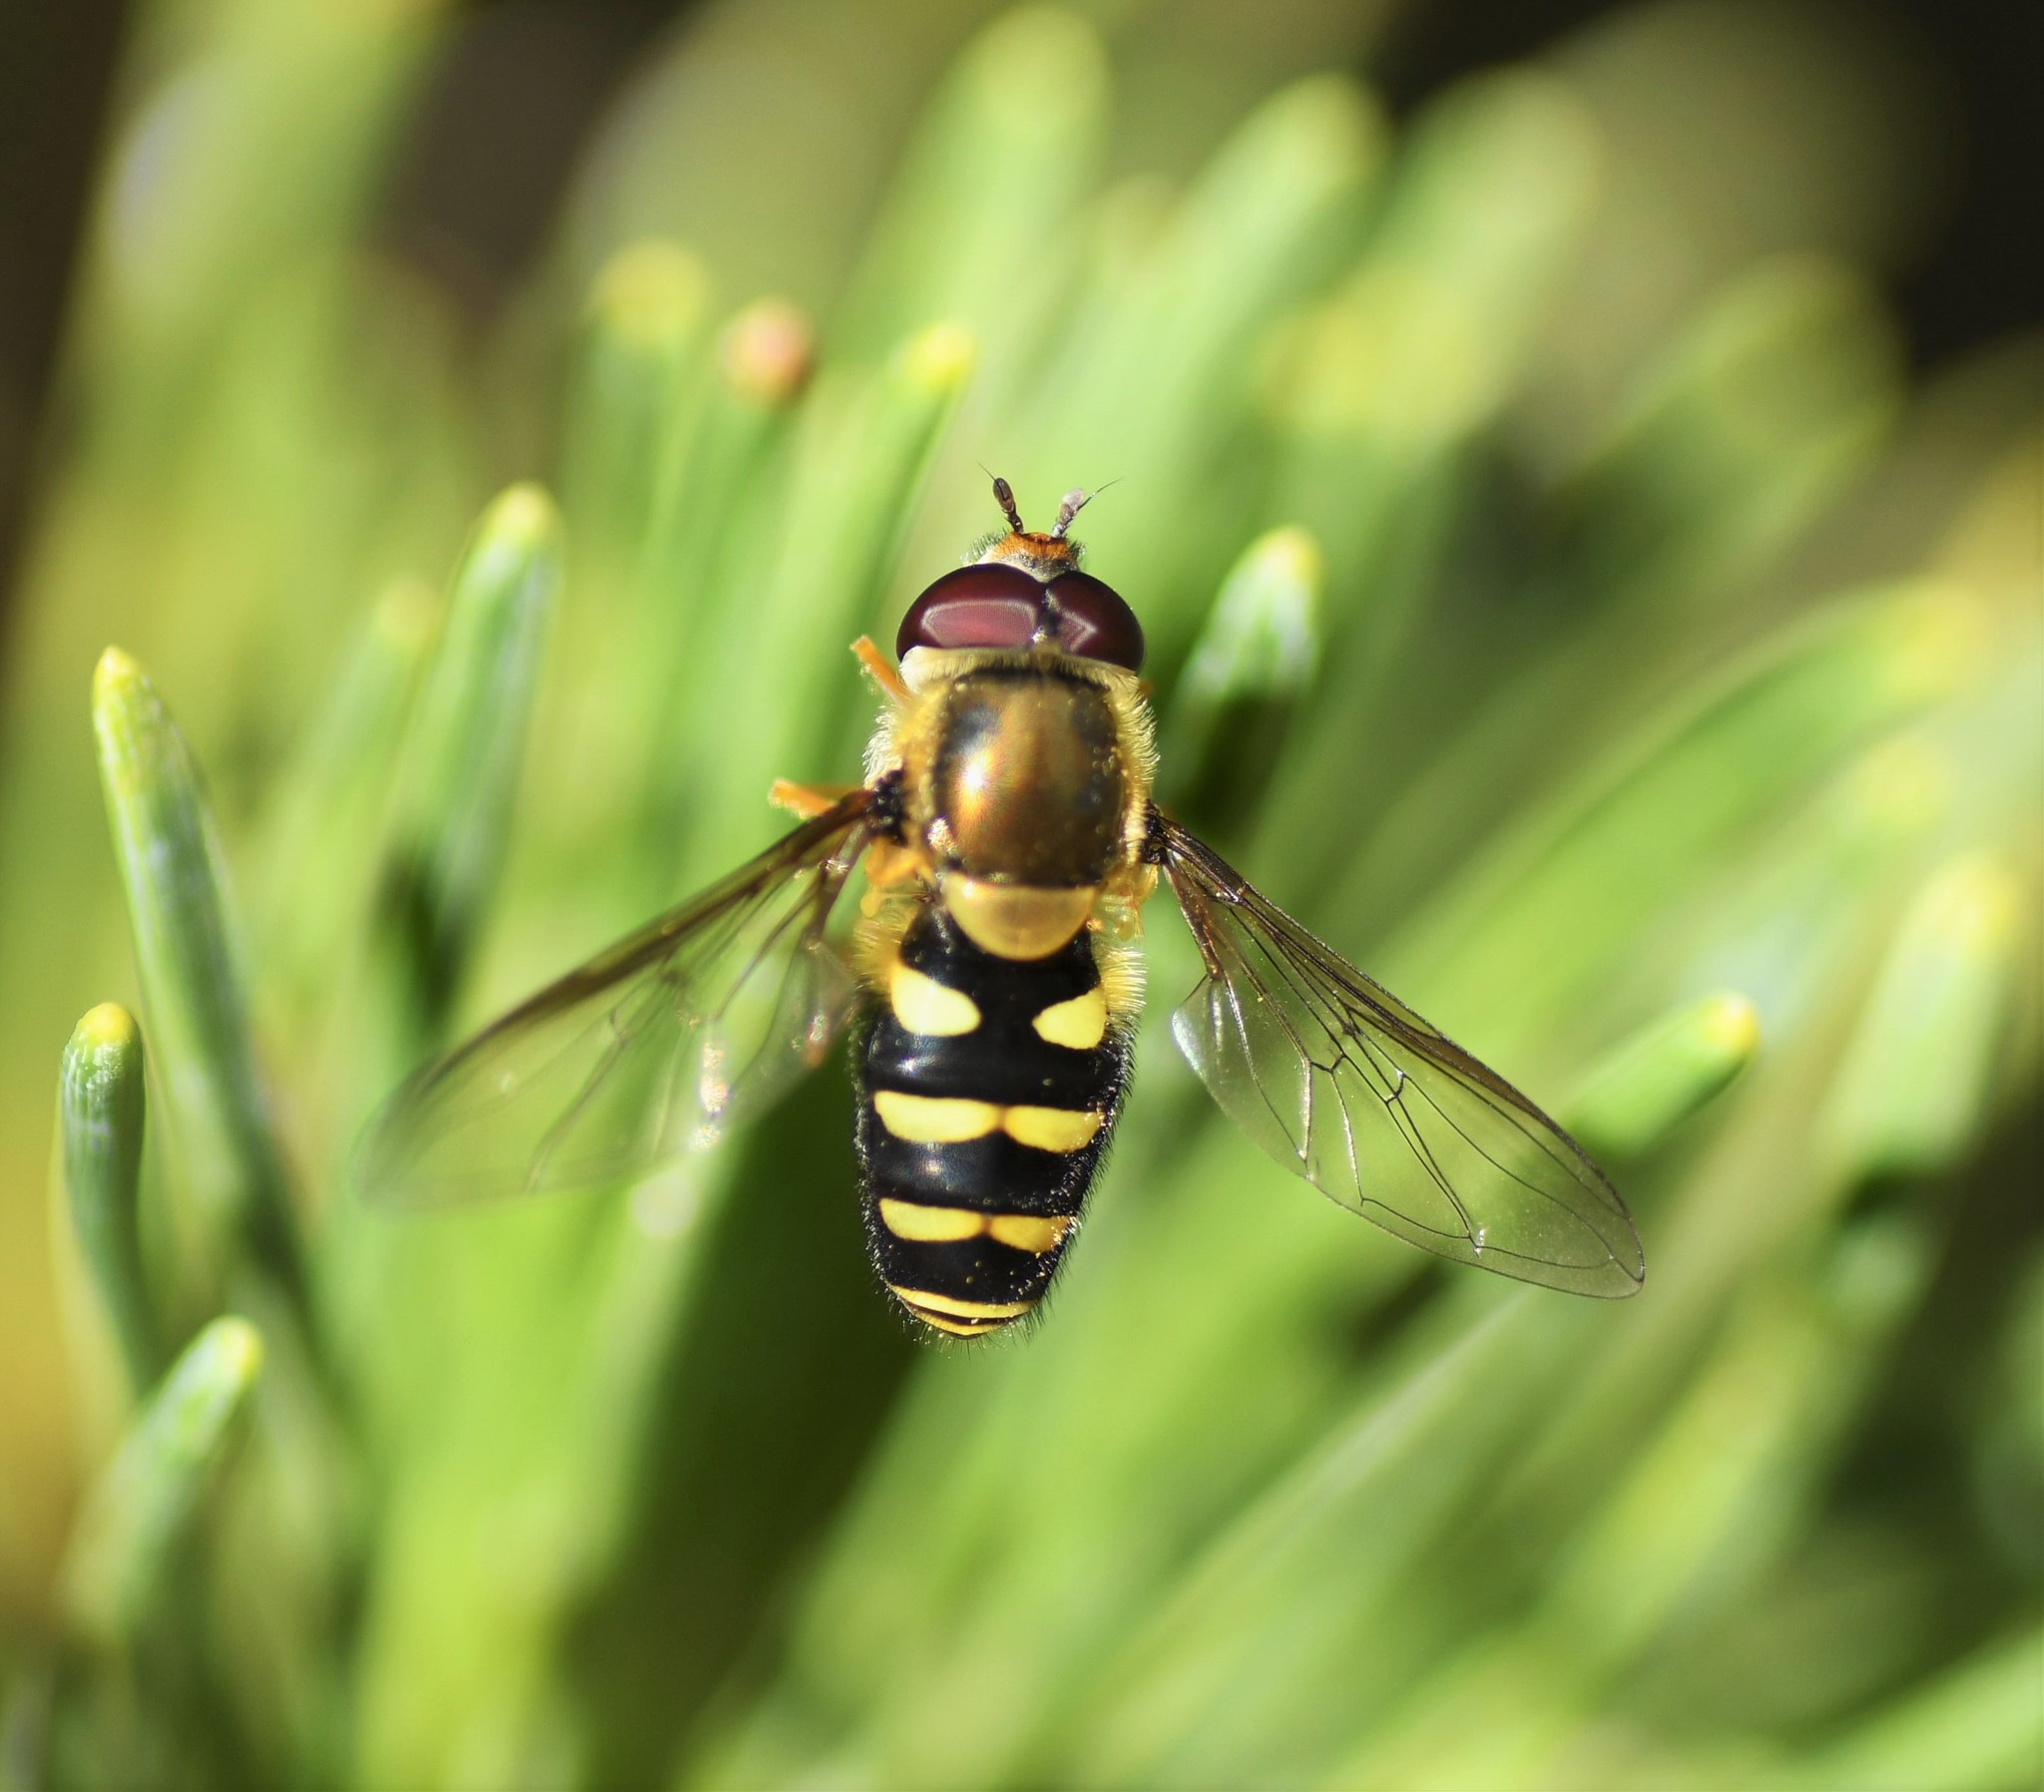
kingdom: Animalia
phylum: Arthropoda
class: Insecta
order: Diptera
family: Syrphidae
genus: Syrphus
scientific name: Syrphus opinator
